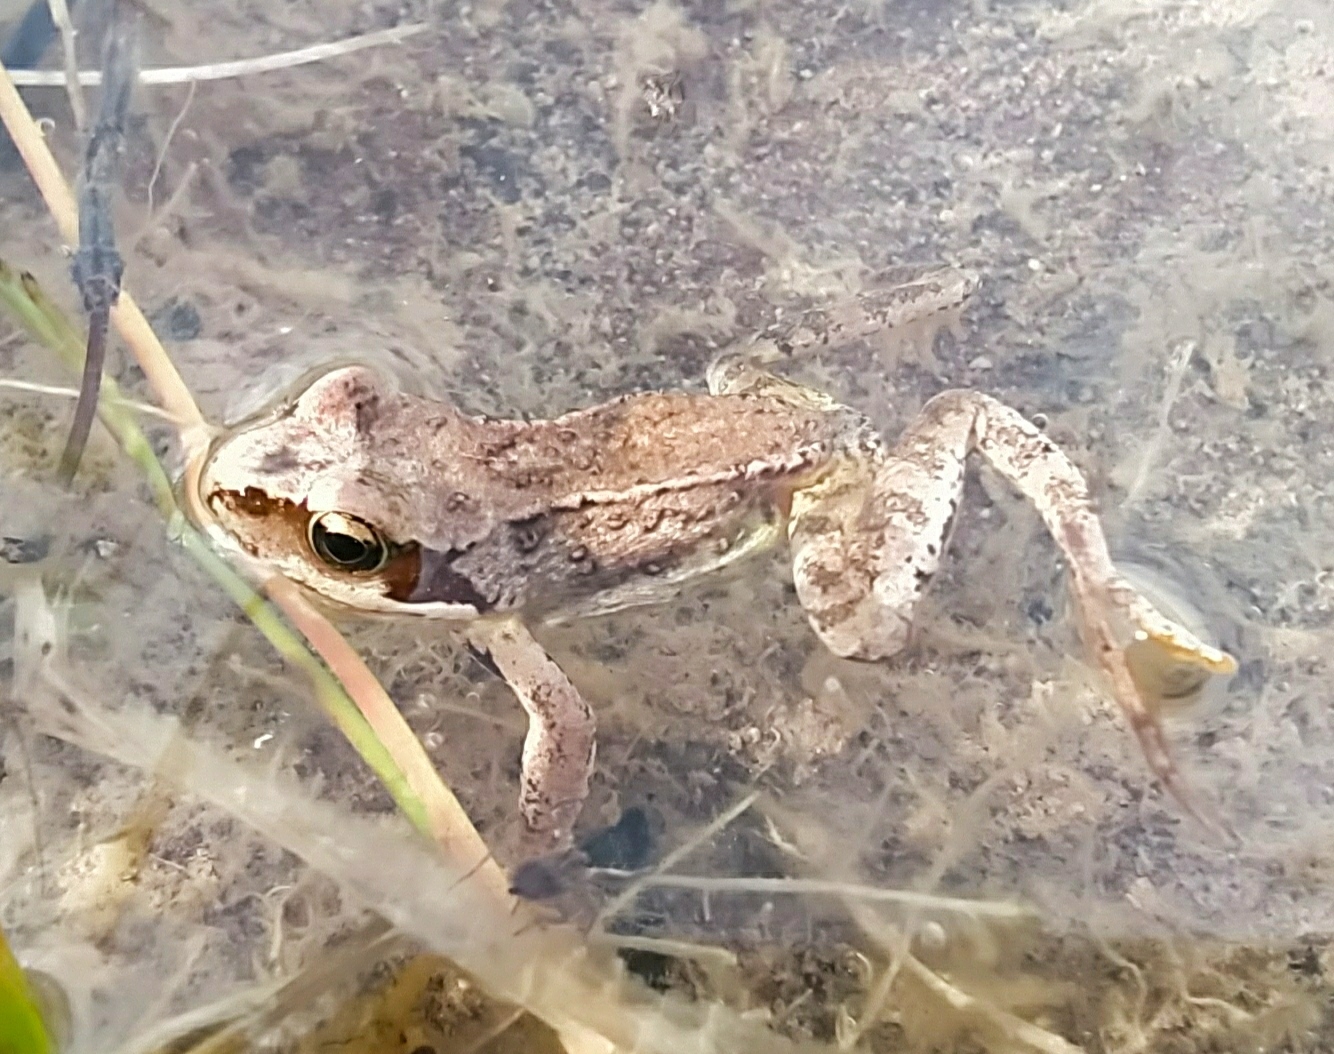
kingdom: Animalia
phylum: Chordata
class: Amphibia
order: Anura
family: Ranidae
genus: Rana
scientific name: Rana temporaria
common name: Common frog
